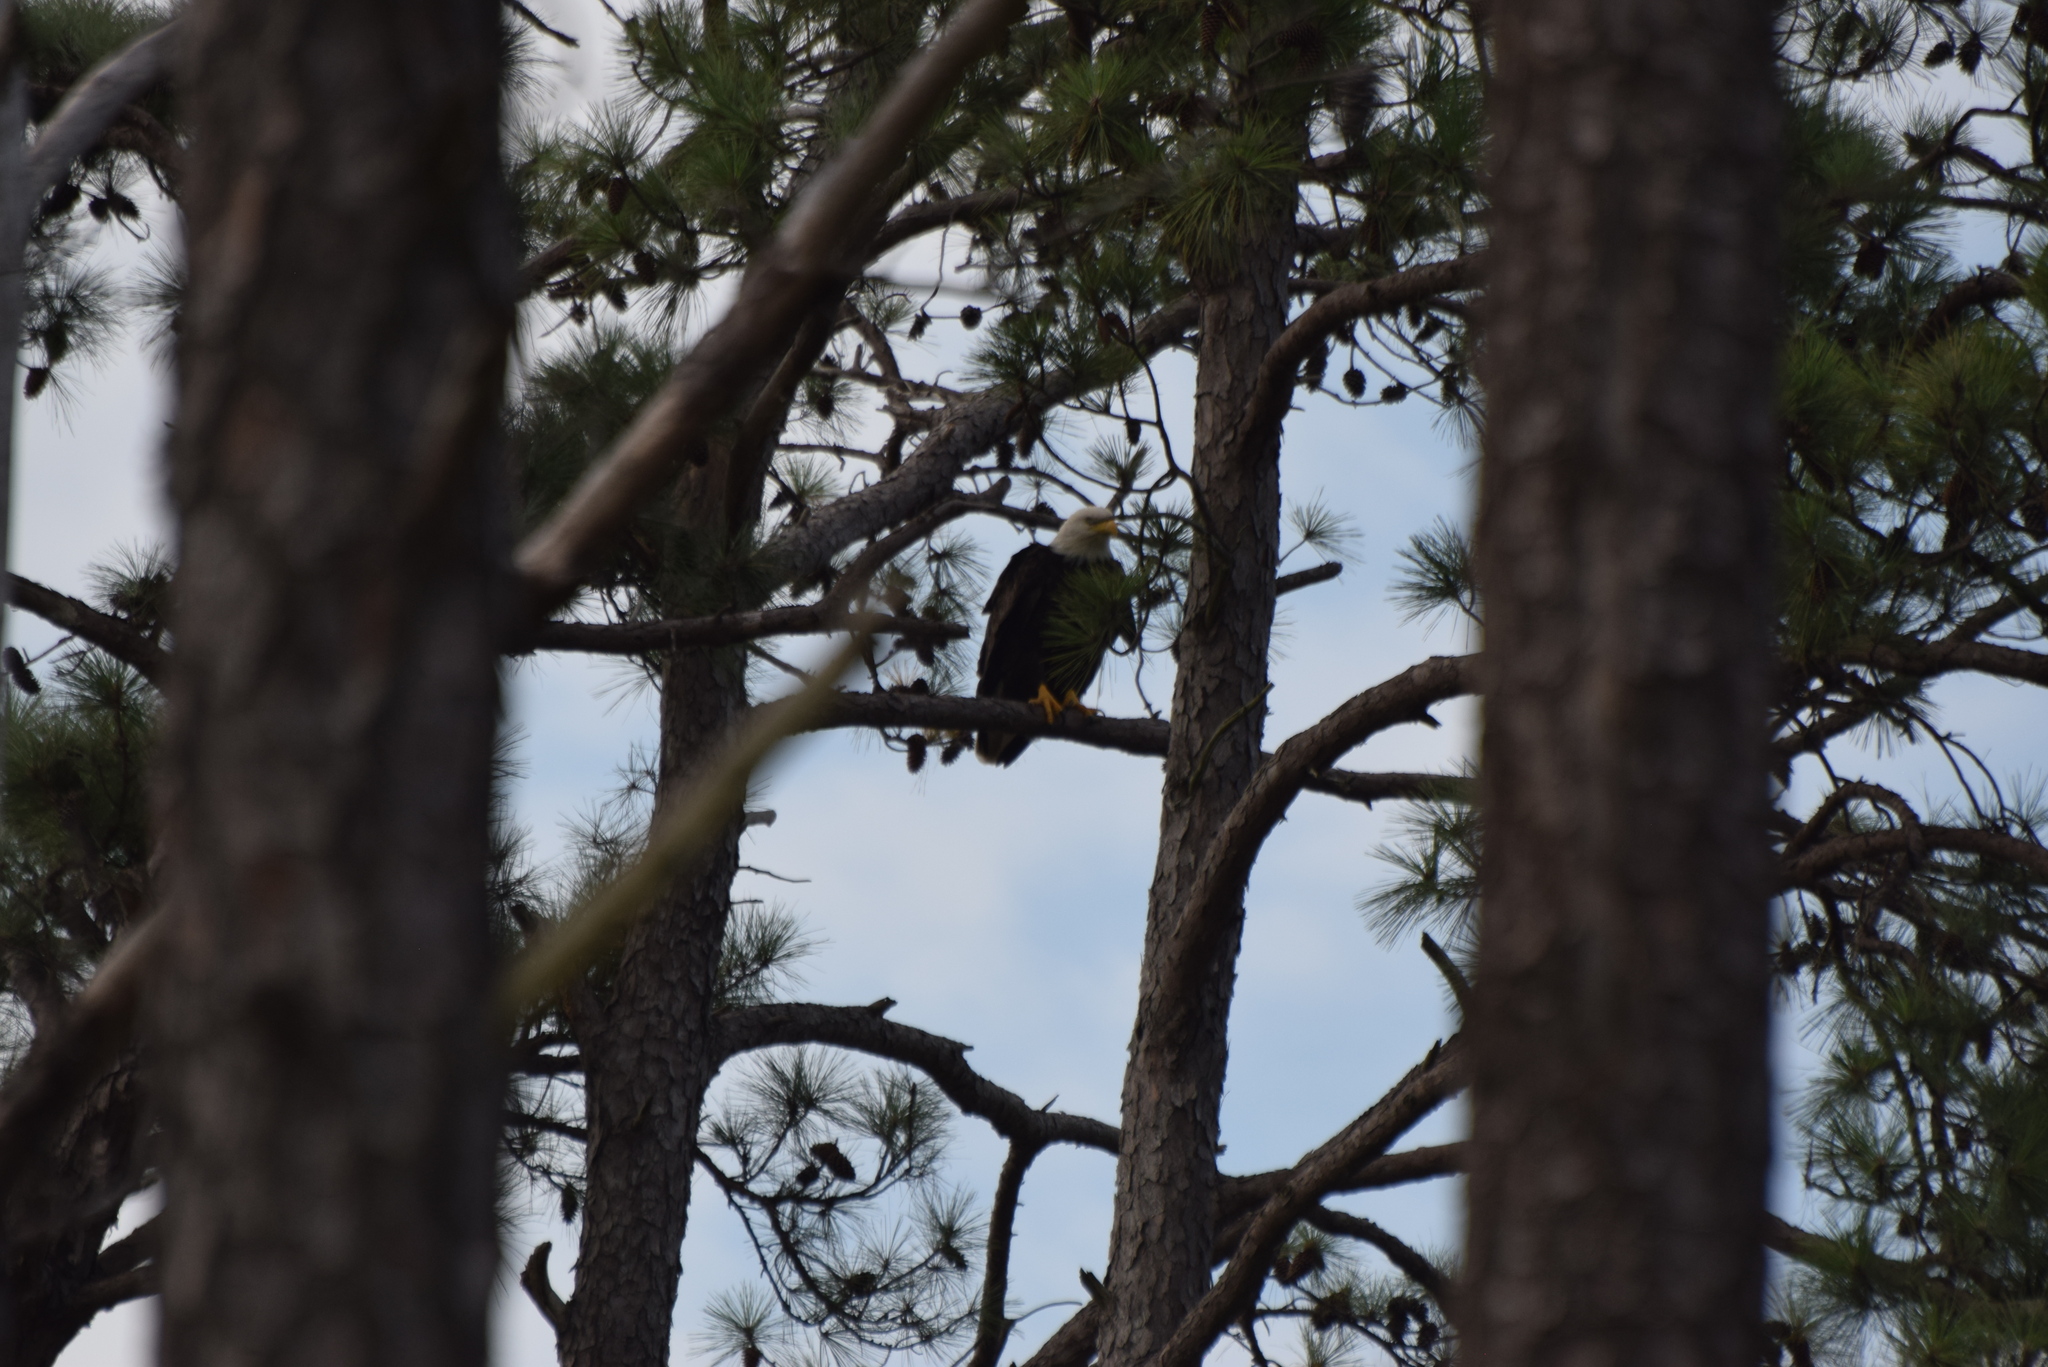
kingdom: Animalia
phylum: Chordata
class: Aves
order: Accipitriformes
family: Accipitridae
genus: Haliaeetus
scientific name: Haliaeetus leucocephalus
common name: Bald eagle
